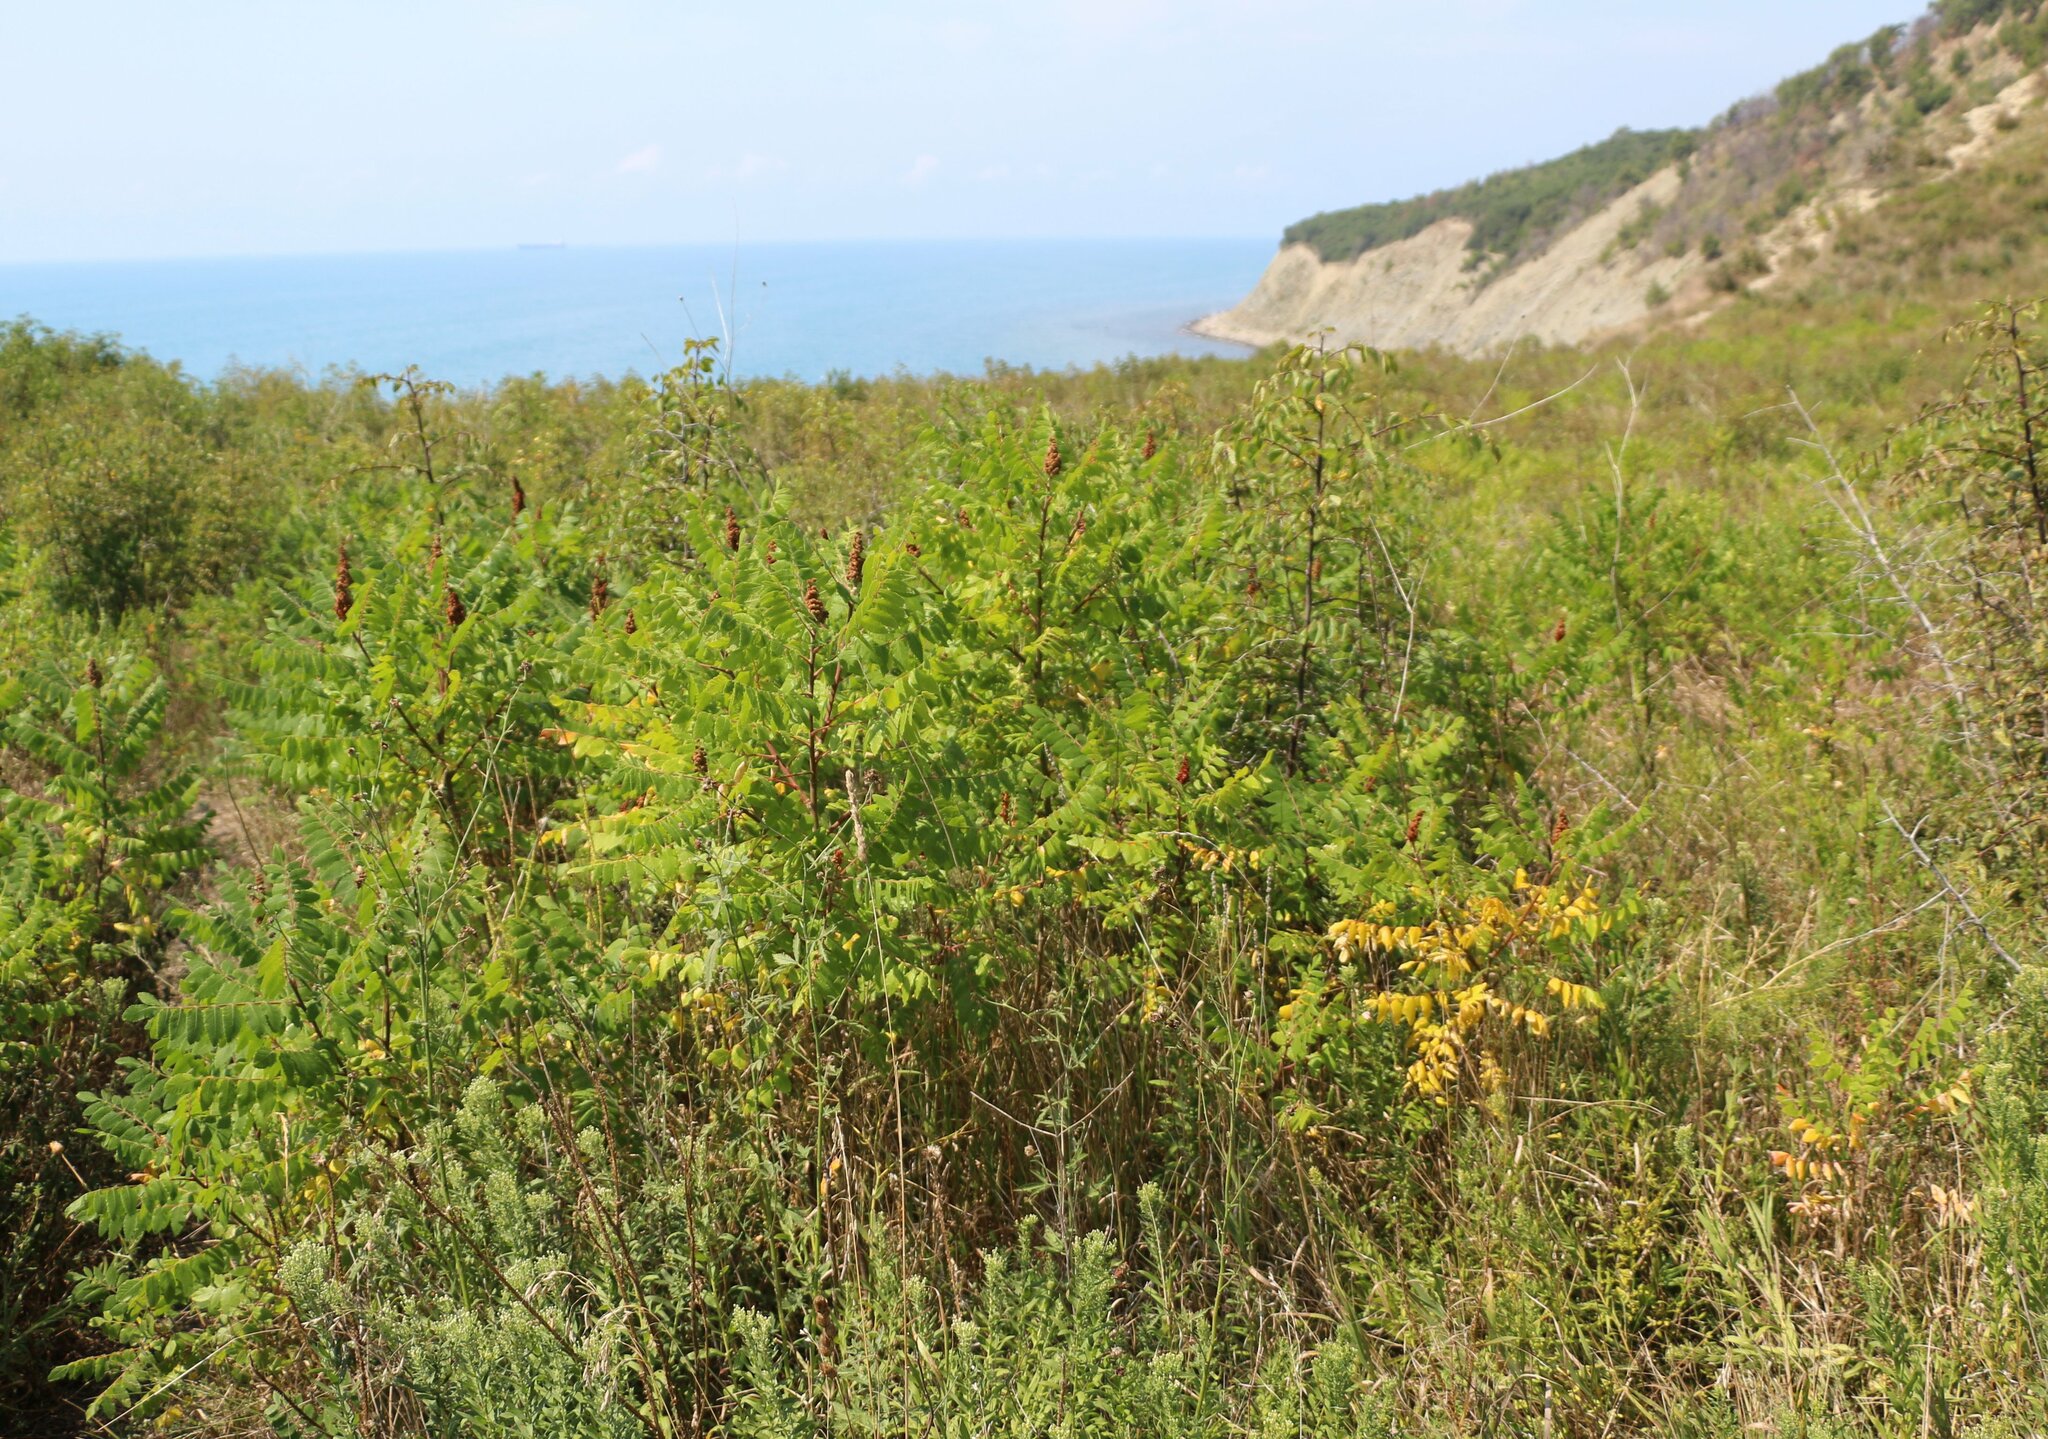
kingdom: Plantae
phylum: Tracheophyta
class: Magnoliopsida
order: Sapindales
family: Anacardiaceae
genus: Rhus
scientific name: Rhus coriaria
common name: Tanner's sumach
